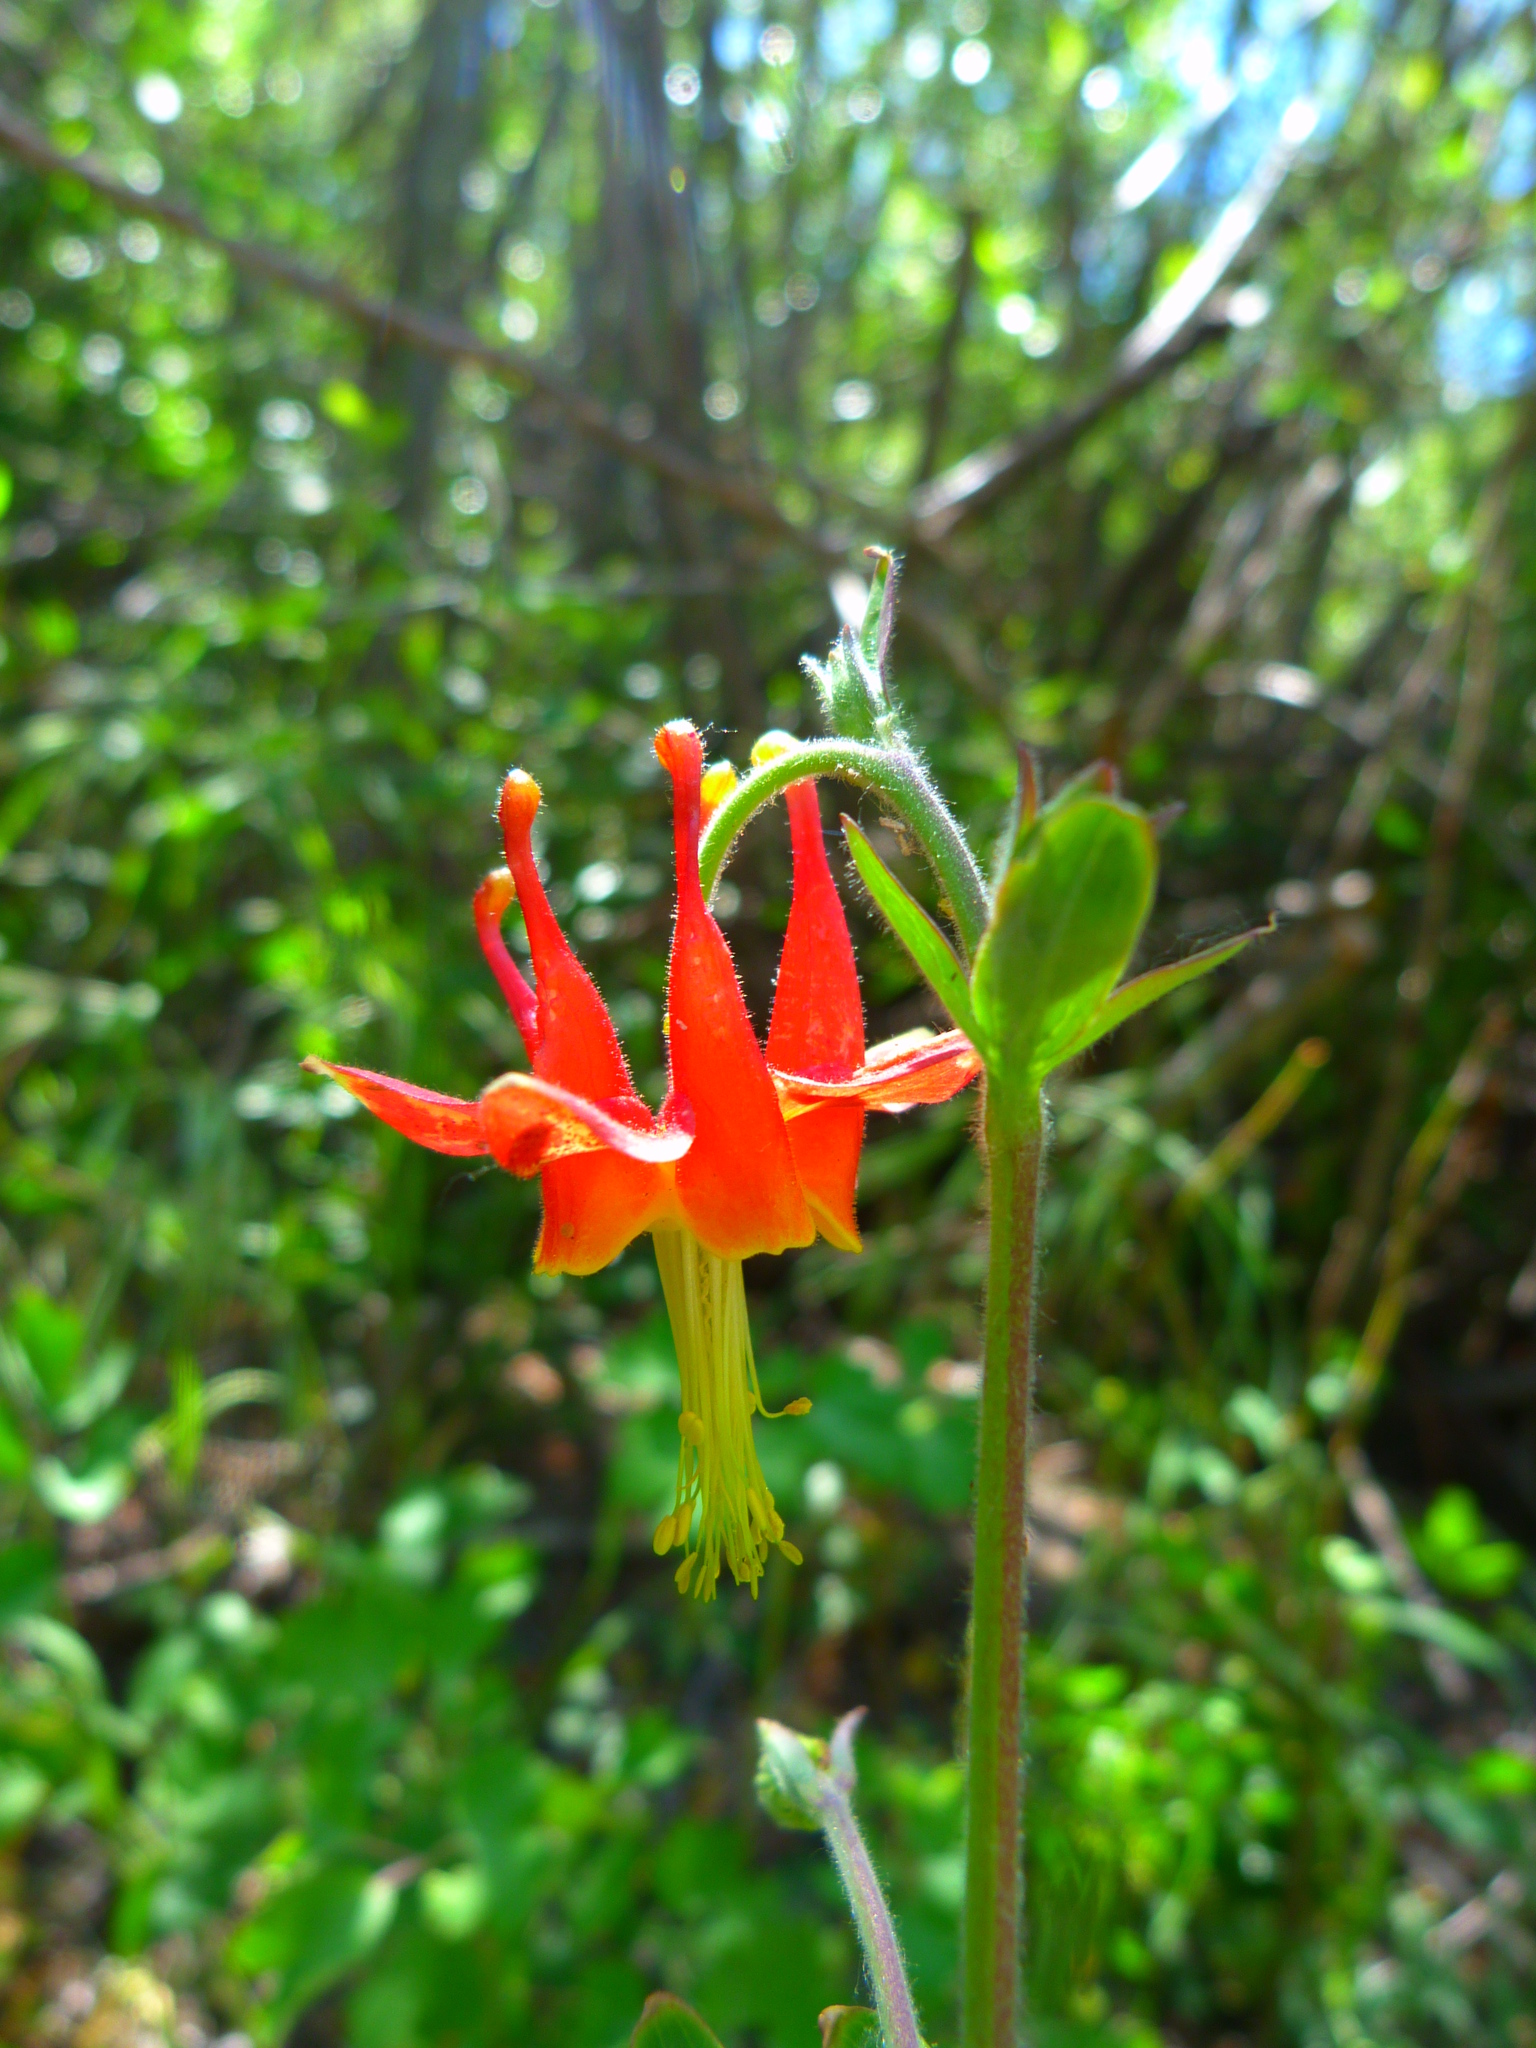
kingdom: Plantae
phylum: Tracheophyta
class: Magnoliopsida
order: Ranunculales
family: Ranunculaceae
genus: Aquilegia
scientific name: Aquilegia formosa
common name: Sitka columbine
